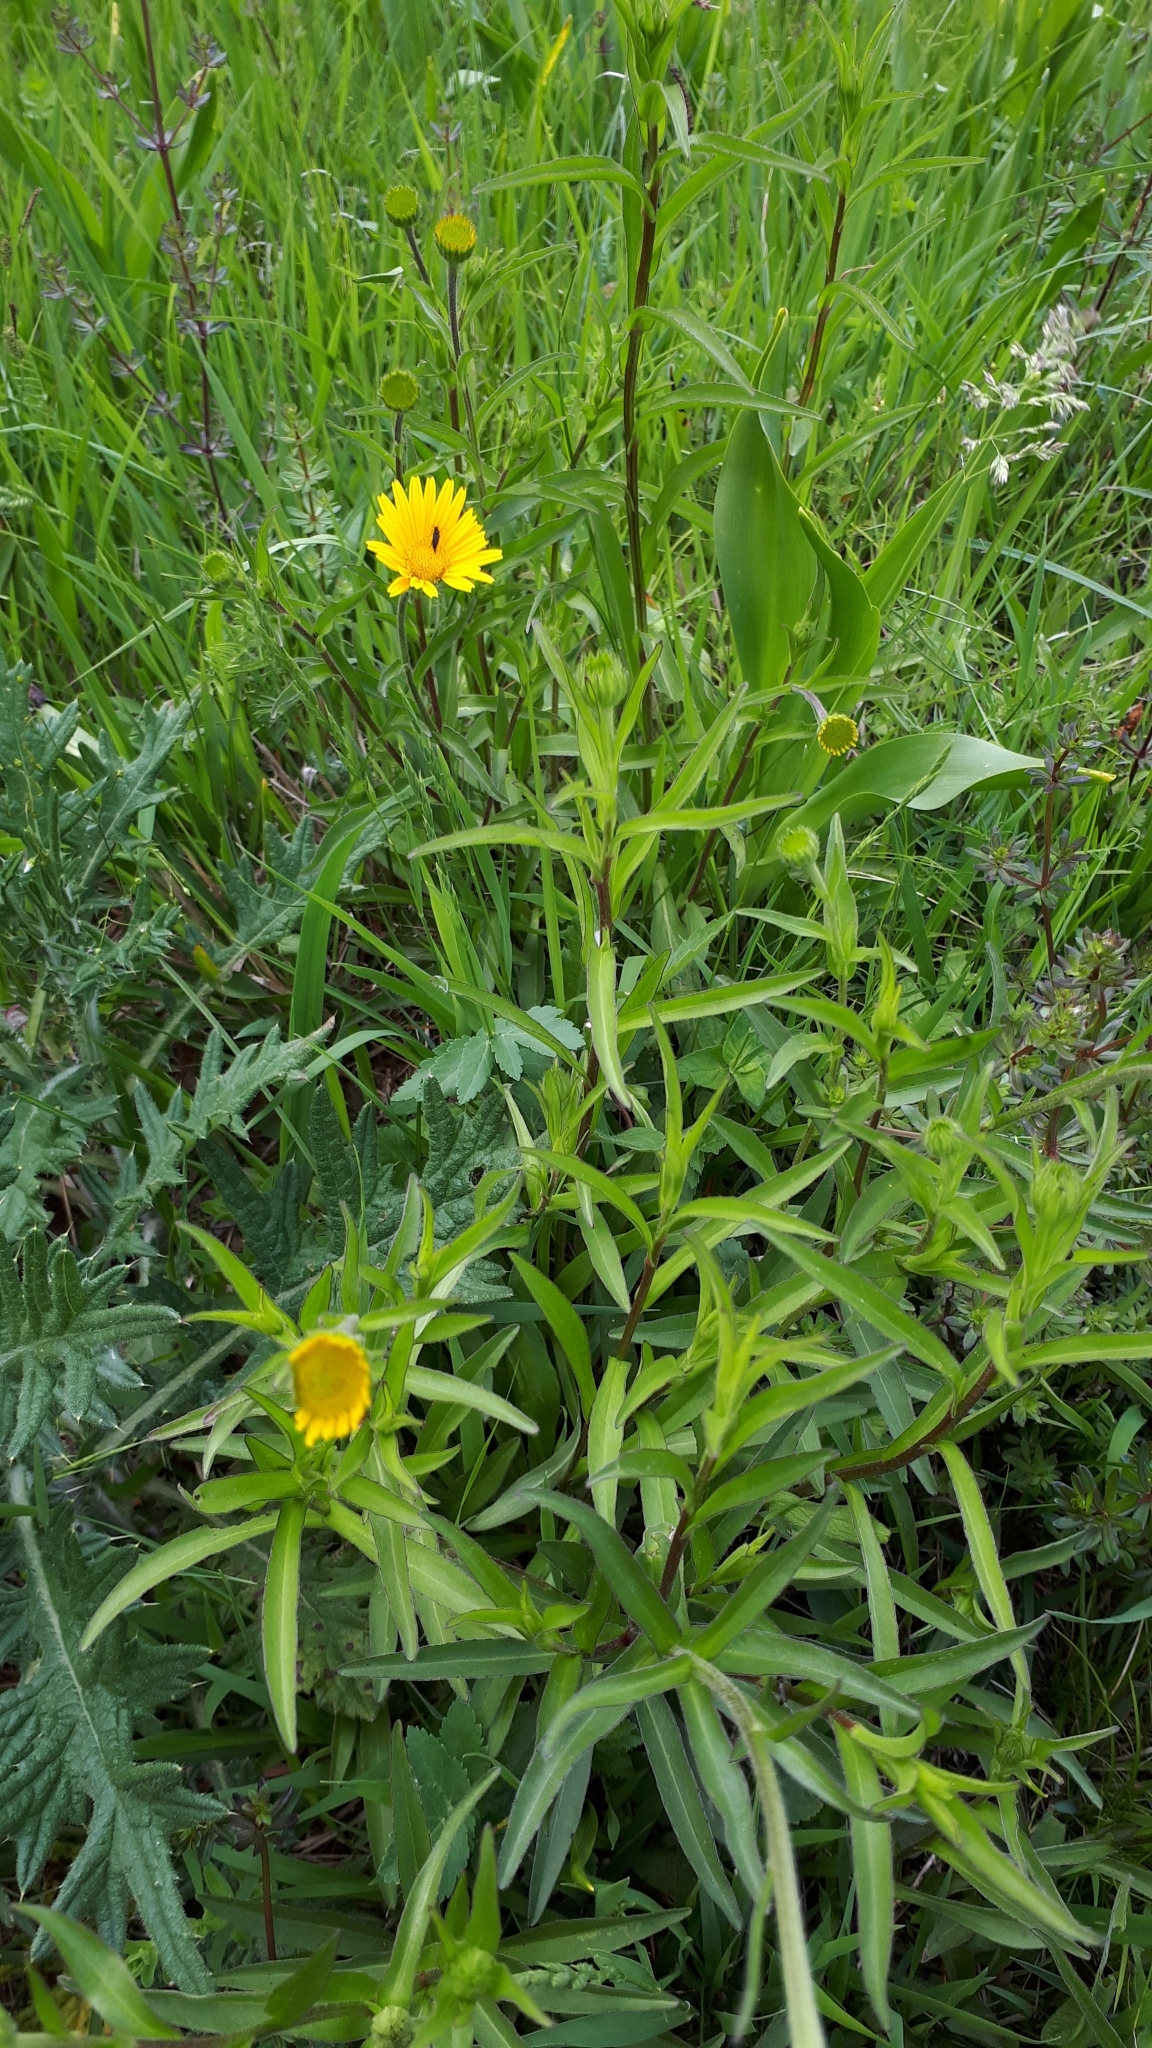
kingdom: Plantae
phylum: Tracheophyta
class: Magnoliopsida
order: Asterales
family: Asteraceae
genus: Buphthalmum
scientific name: Buphthalmum salicifolium
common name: Willow-leaved yellow-oxeye
